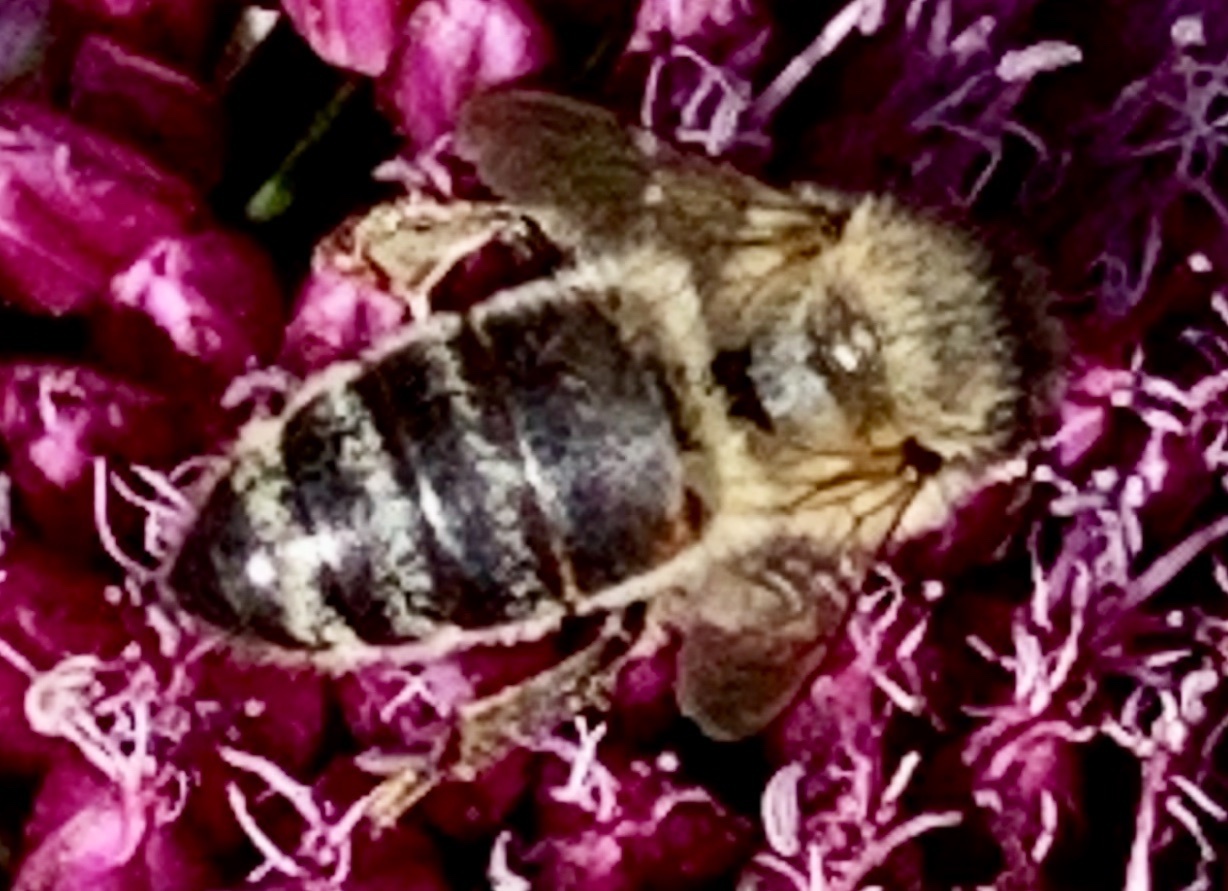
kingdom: Animalia
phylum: Arthropoda
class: Insecta
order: Hymenoptera
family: Apidae
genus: Apis
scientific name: Apis mellifera
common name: Honey bee
